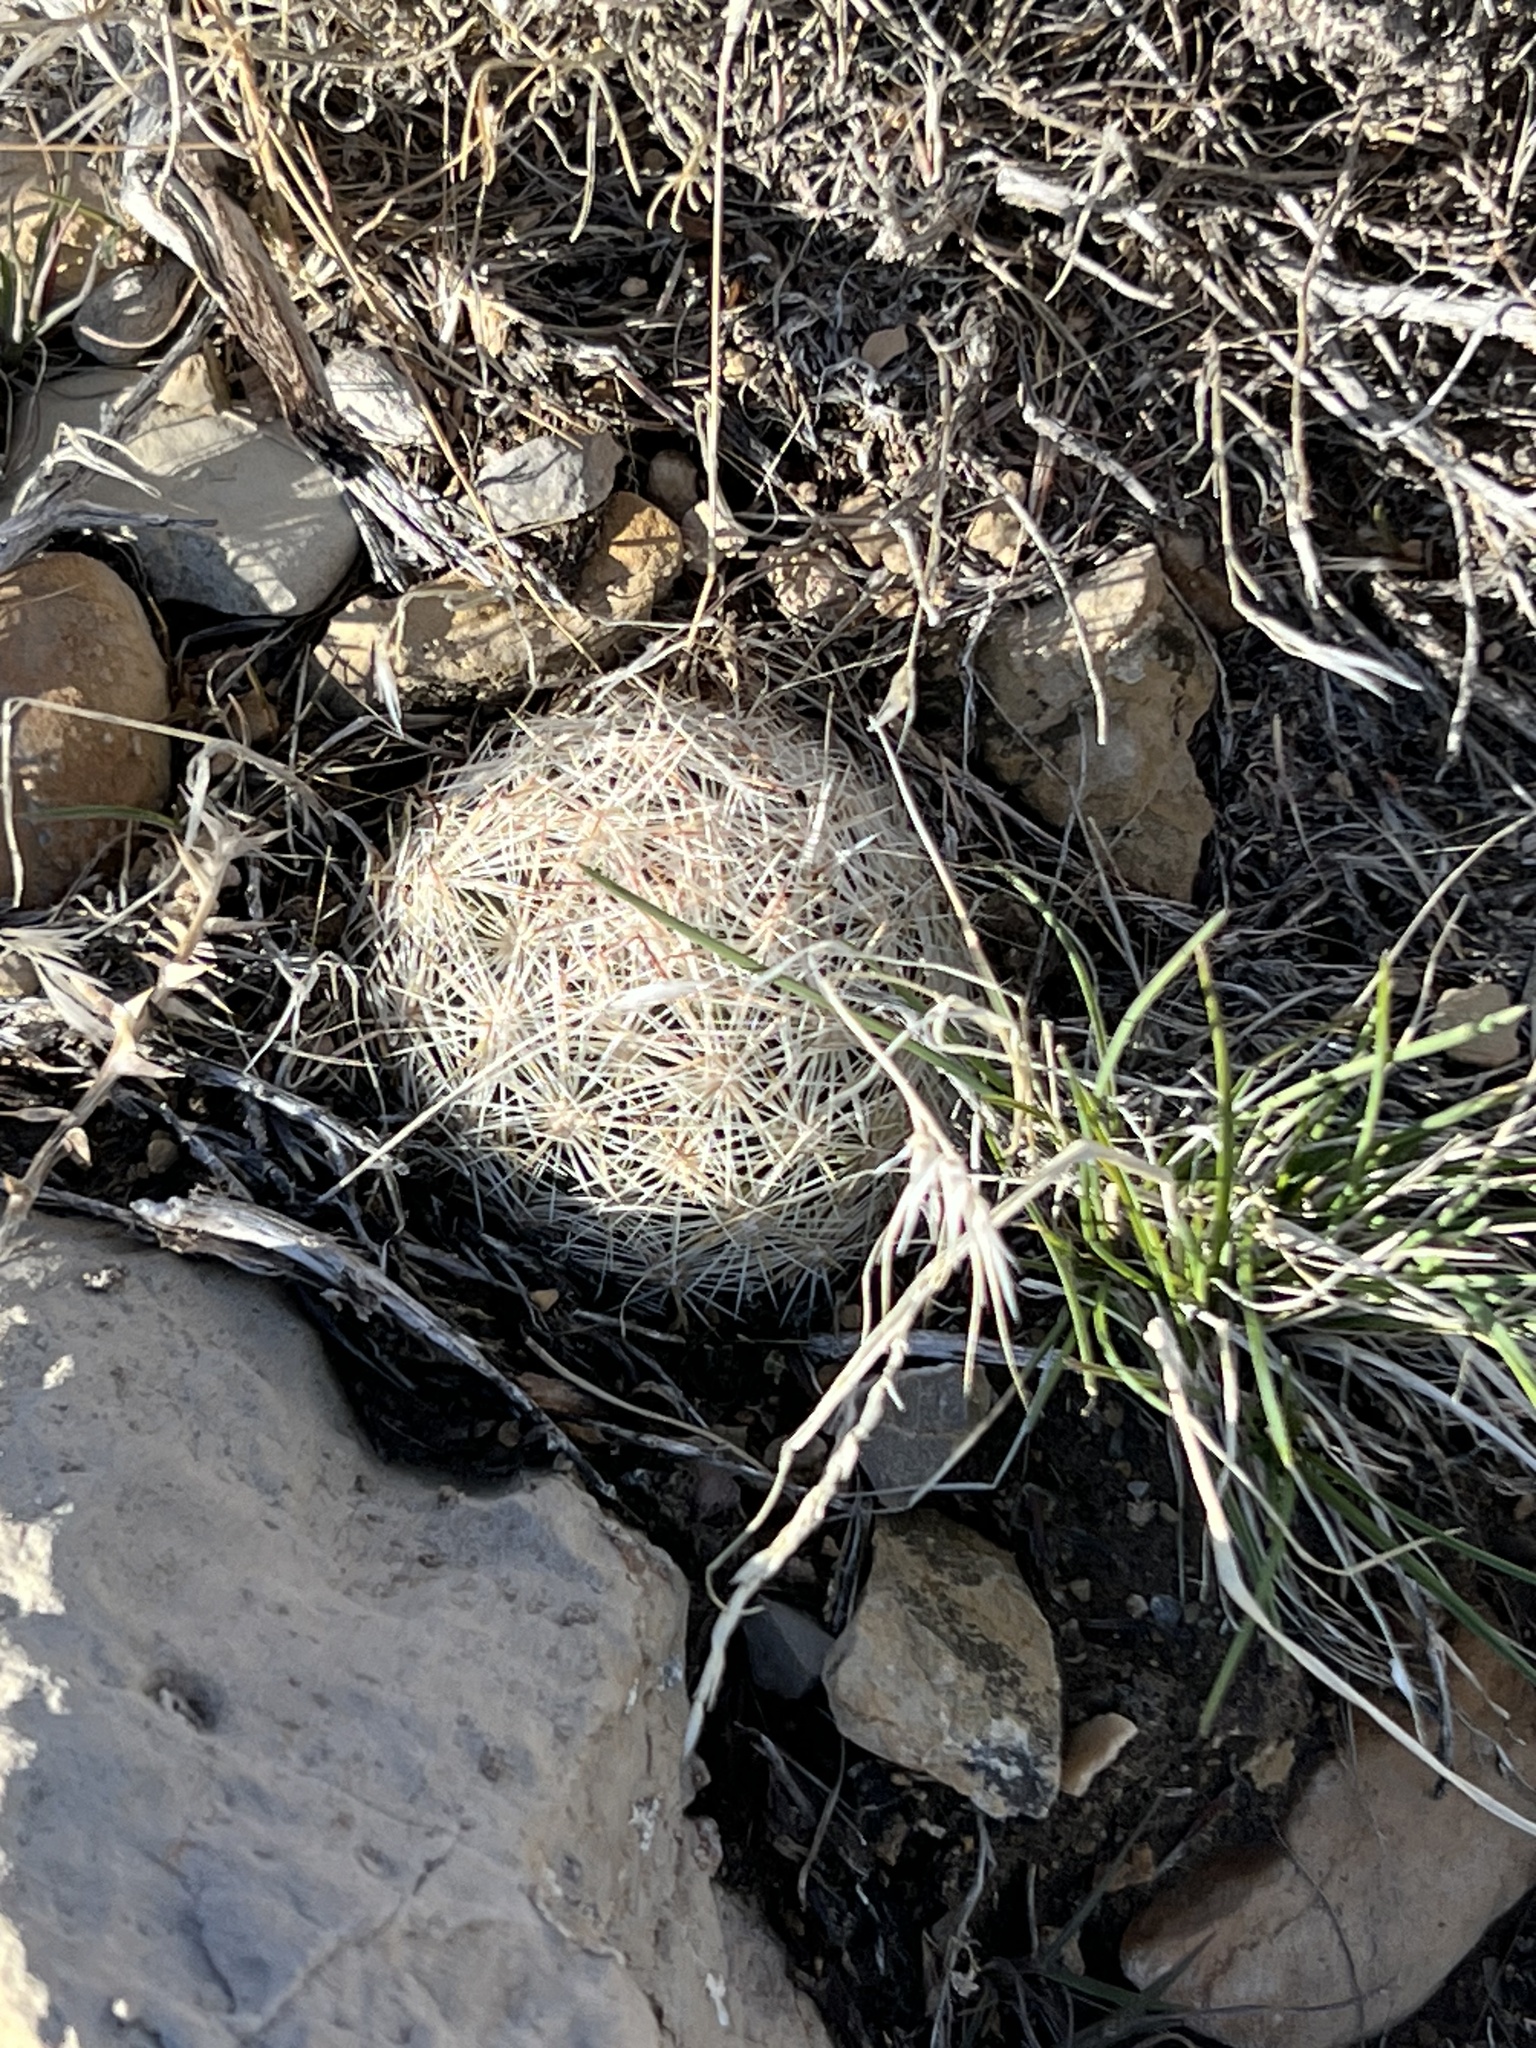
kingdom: Plantae
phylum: Tracheophyta
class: Magnoliopsida
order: Caryophyllales
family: Cactaceae
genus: Pelecyphora
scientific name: Pelecyphora dasyacantha
